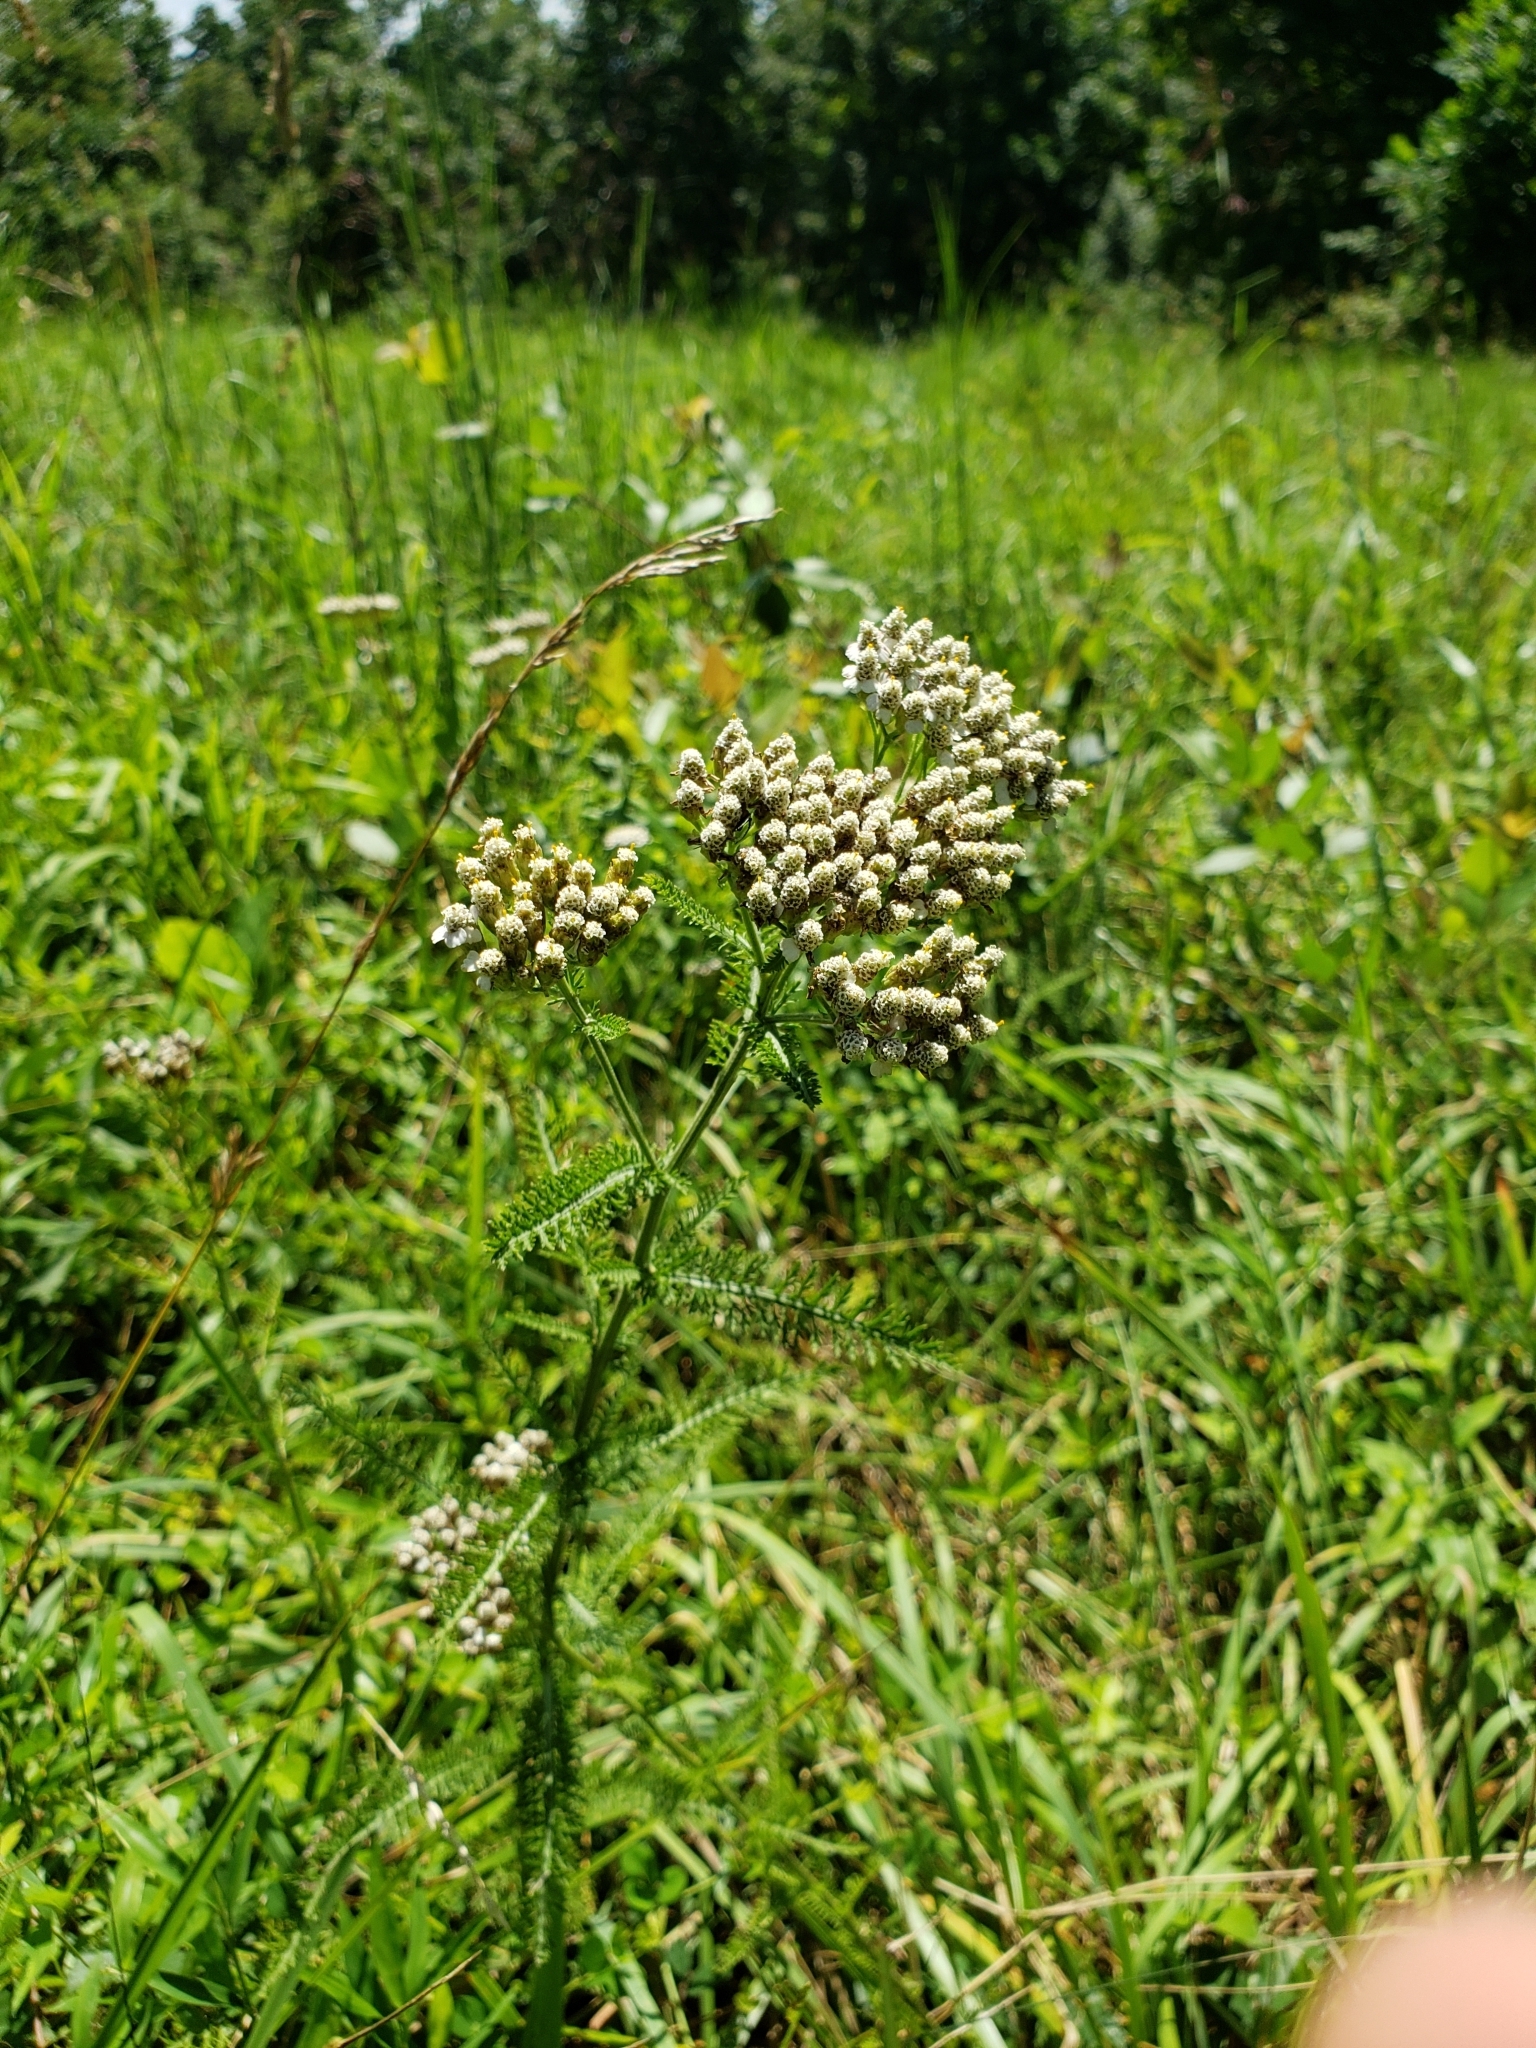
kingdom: Plantae
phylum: Tracheophyta
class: Magnoliopsida
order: Asterales
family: Asteraceae
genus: Achillea
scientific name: Achillea millefolium
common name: Yarrow
